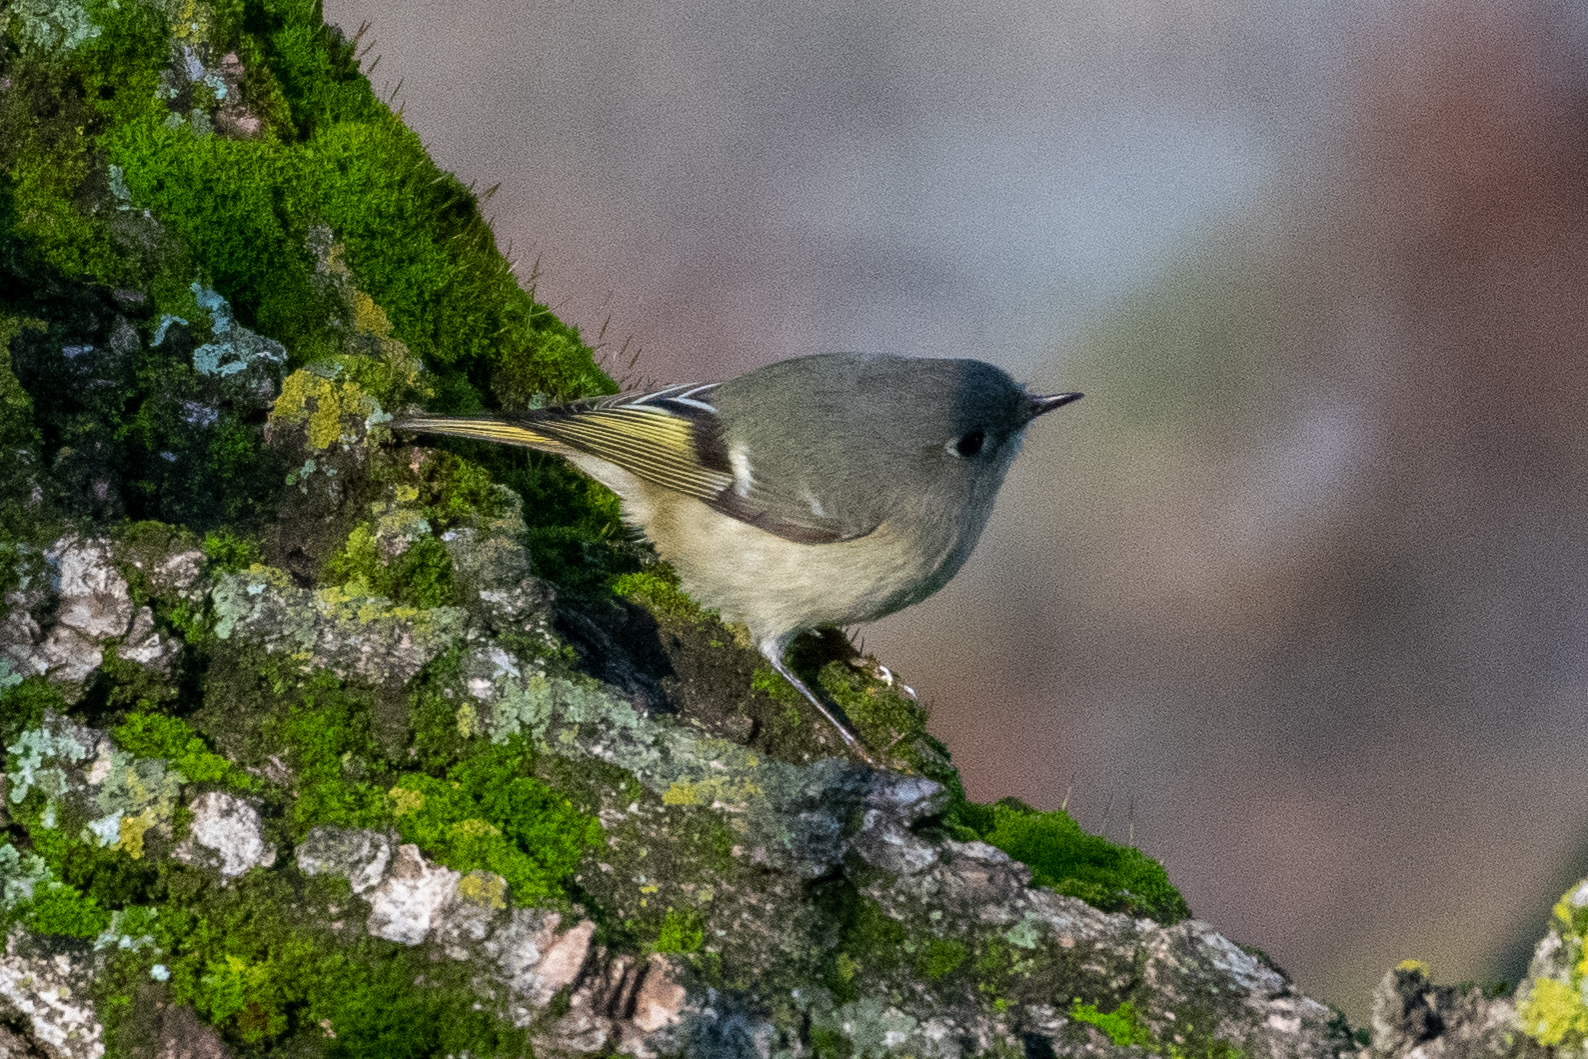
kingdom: Animalia
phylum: Chordata
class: Aves
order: Passeriformes
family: Regulidae
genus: Regulus
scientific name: Regulus calendula
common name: Ruby-crowned kinglet
